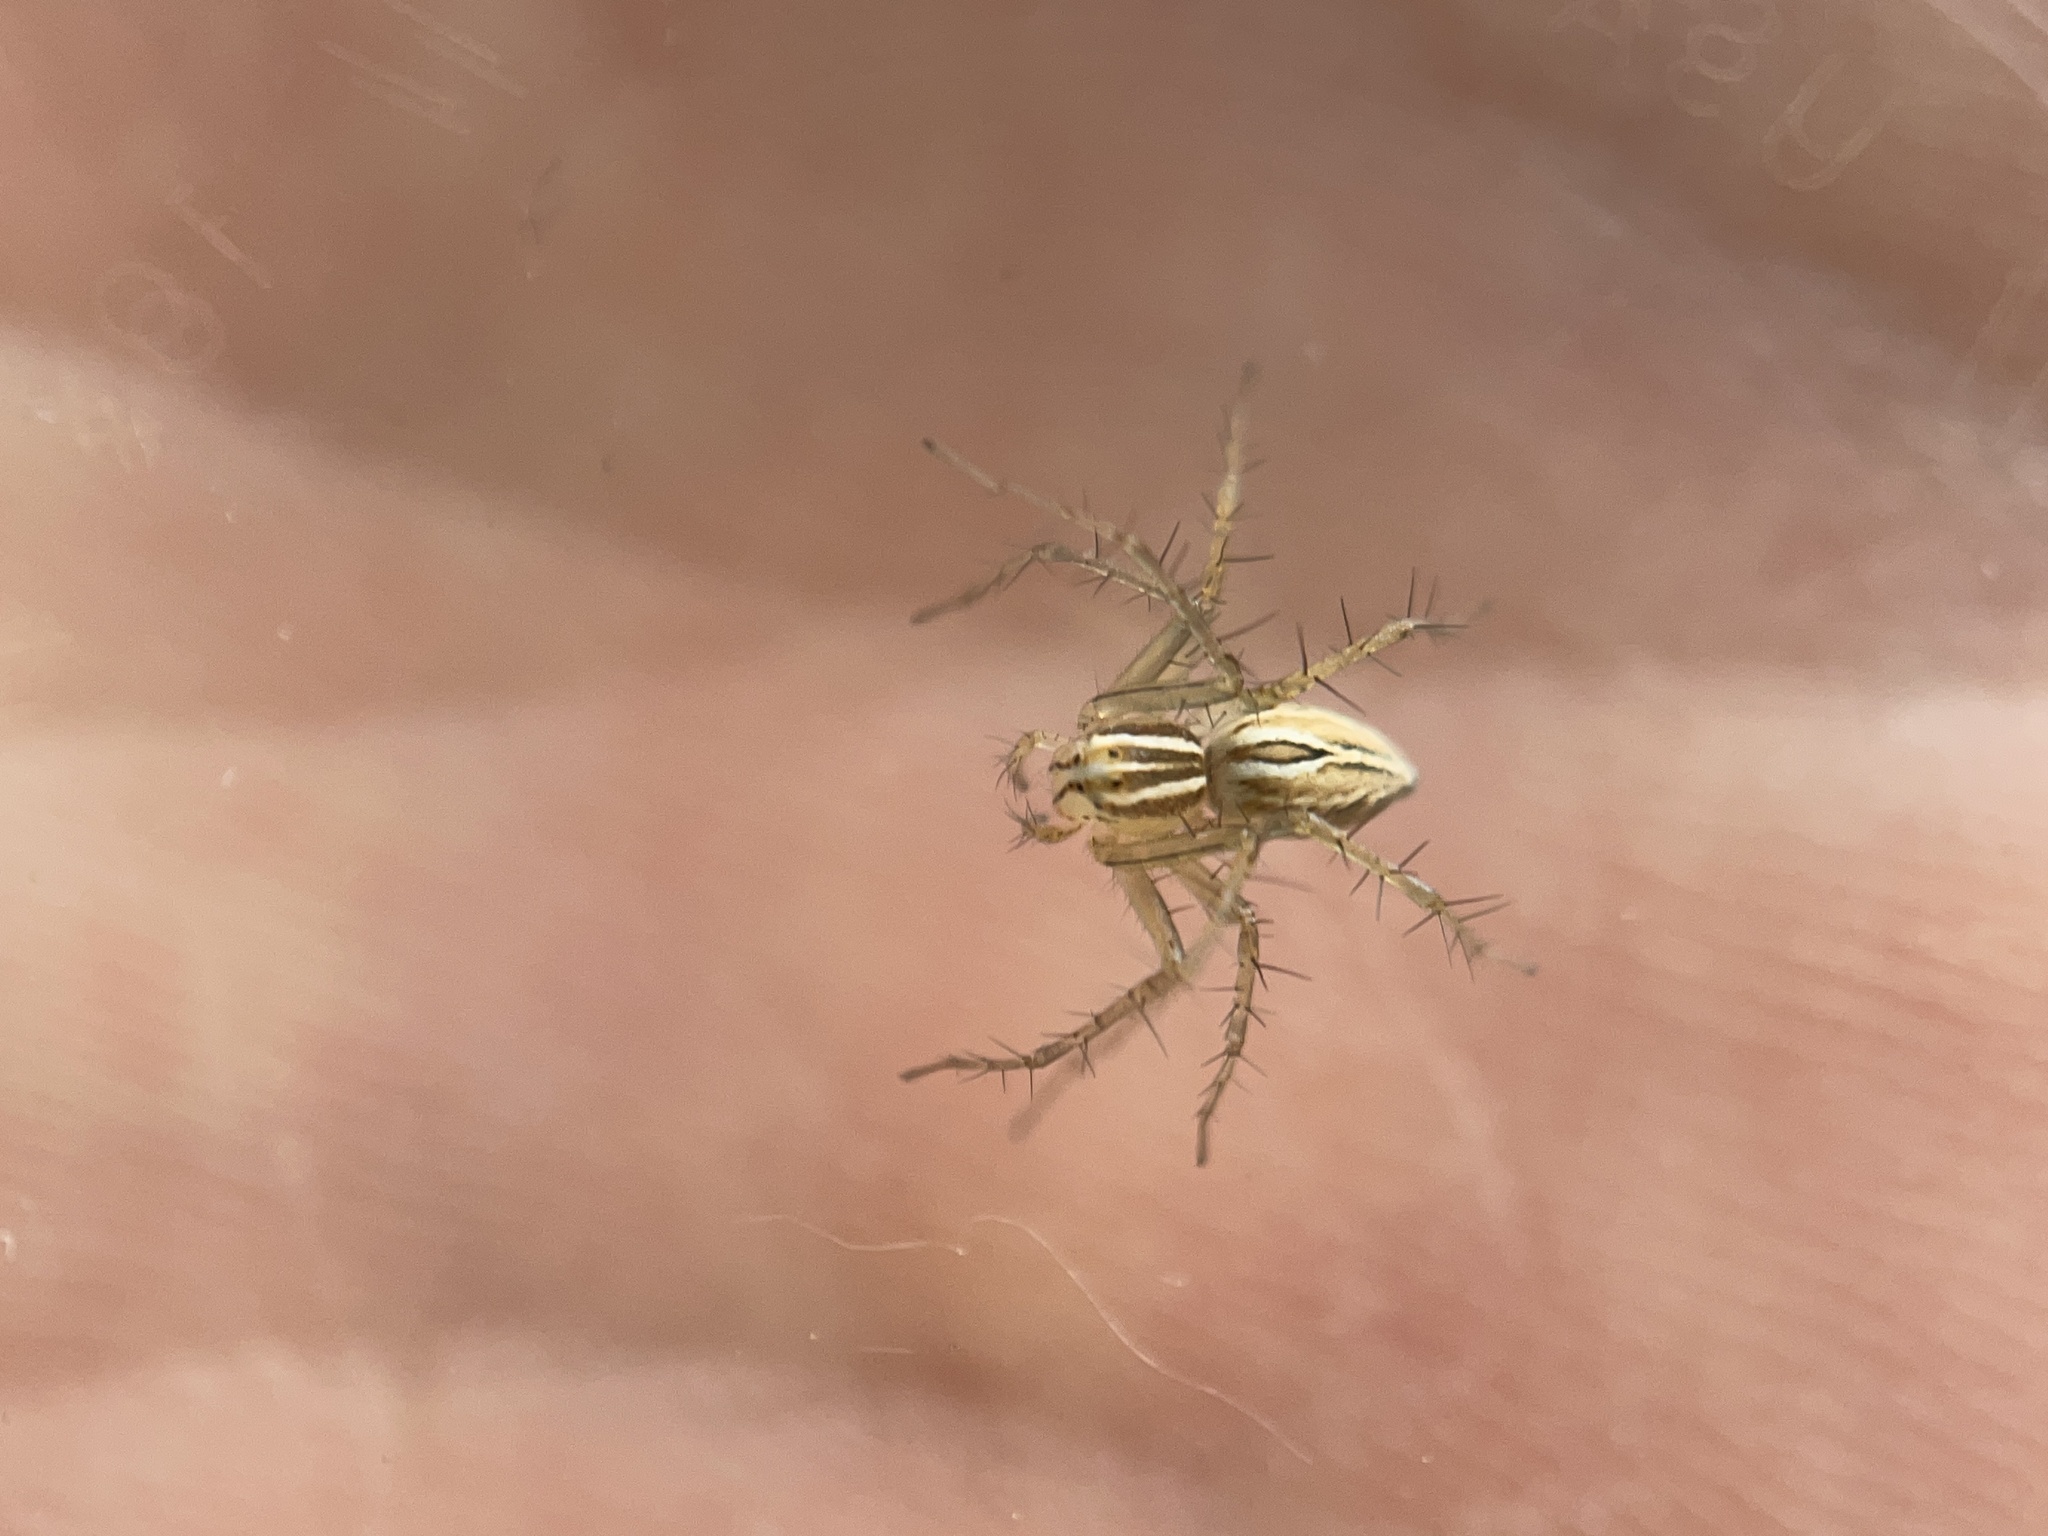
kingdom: Animalia
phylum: Arthropoda
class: Arachnida
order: Araneae
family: Oxyopidae
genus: Oxyopes
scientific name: Oxyopes salticus
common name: Lynx spiders
